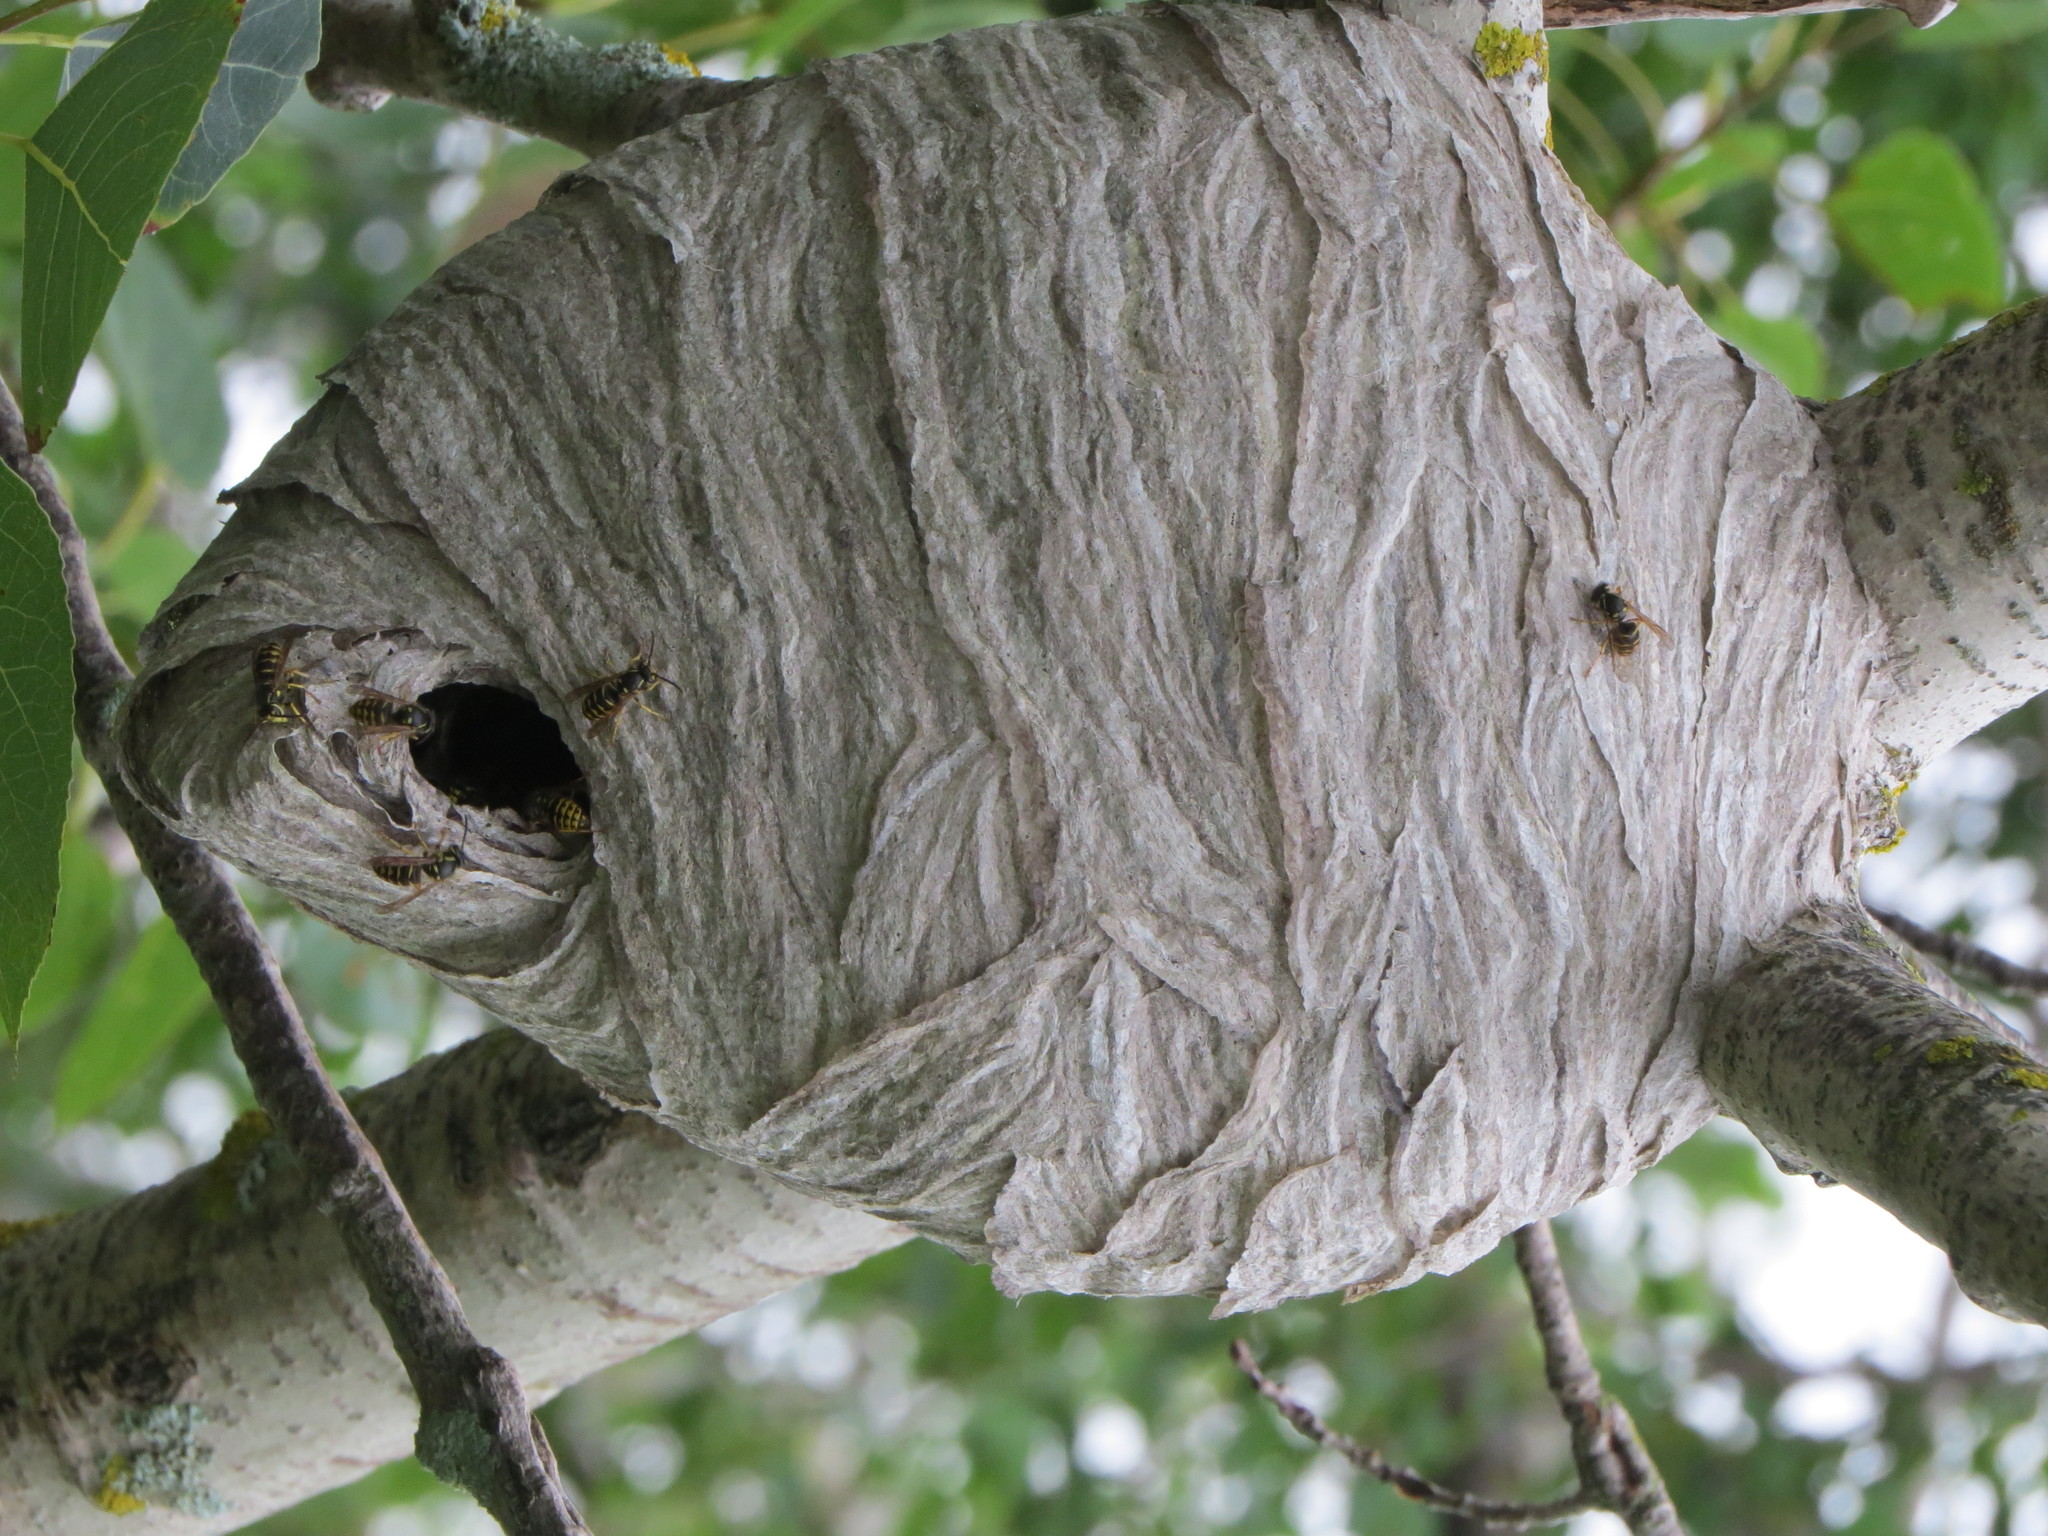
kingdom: Animalia
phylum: Arthropoda
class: Insecta
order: Hymenoptera
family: Vespidae
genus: Dolichovespula
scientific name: Dolichovespula arenaria
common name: Aerial yellowjacket
